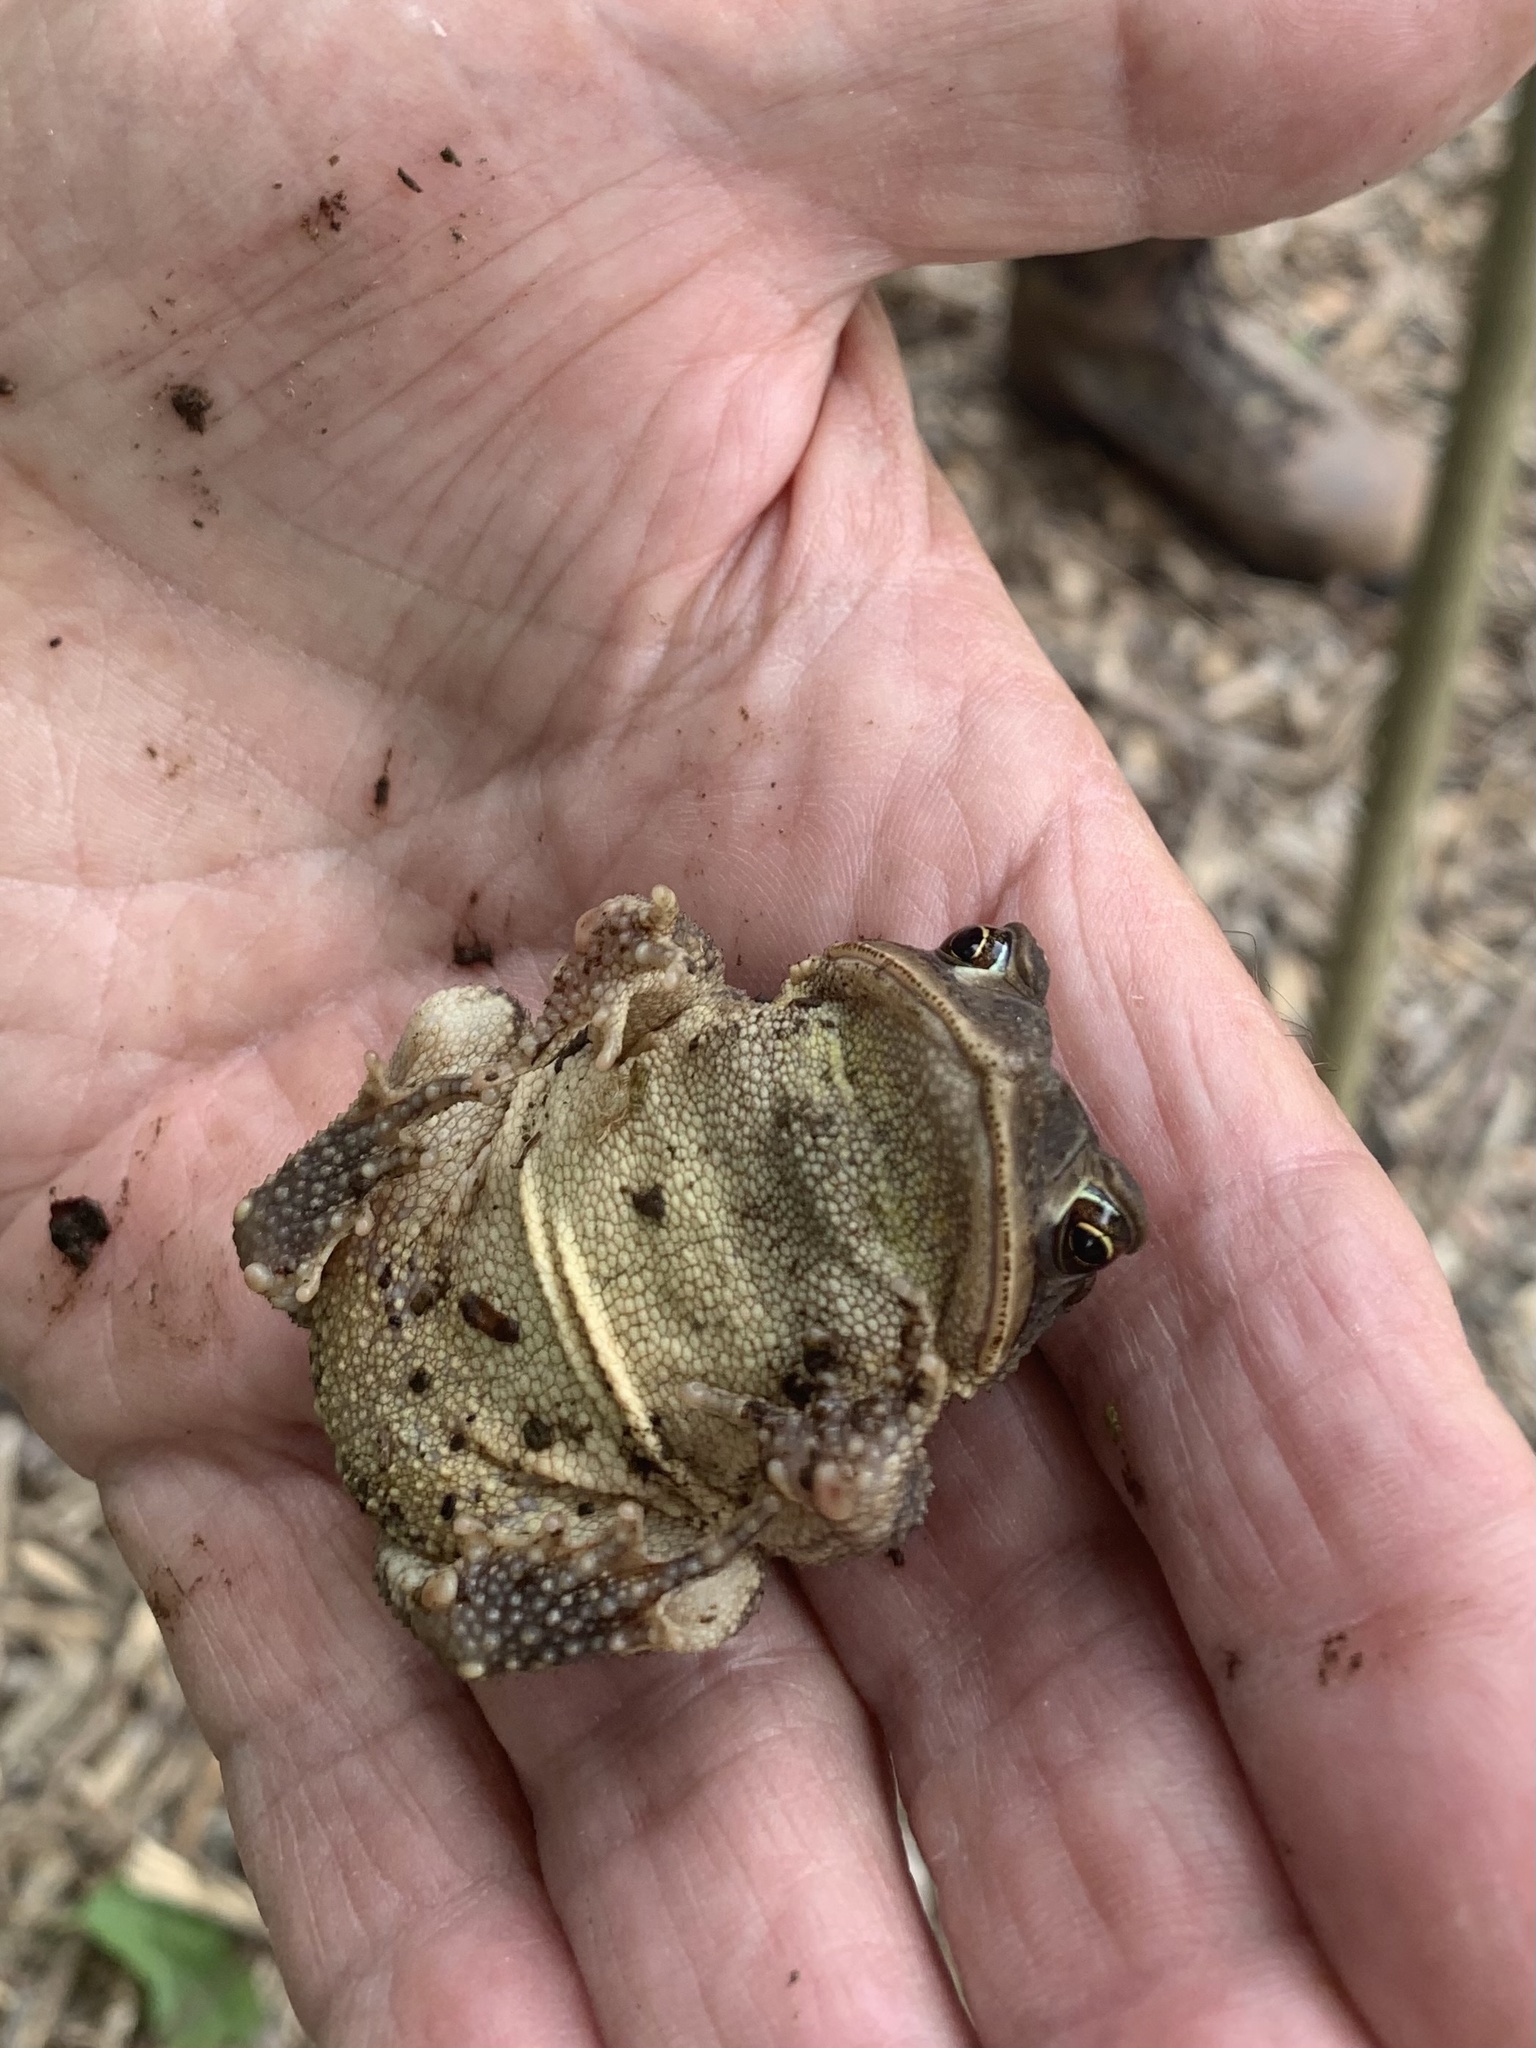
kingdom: Animalia
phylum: Chordata
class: Amphibia
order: Anura
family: Bufonidae
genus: Incilius
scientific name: Incilius nebulifer
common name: Gulf coast toad
